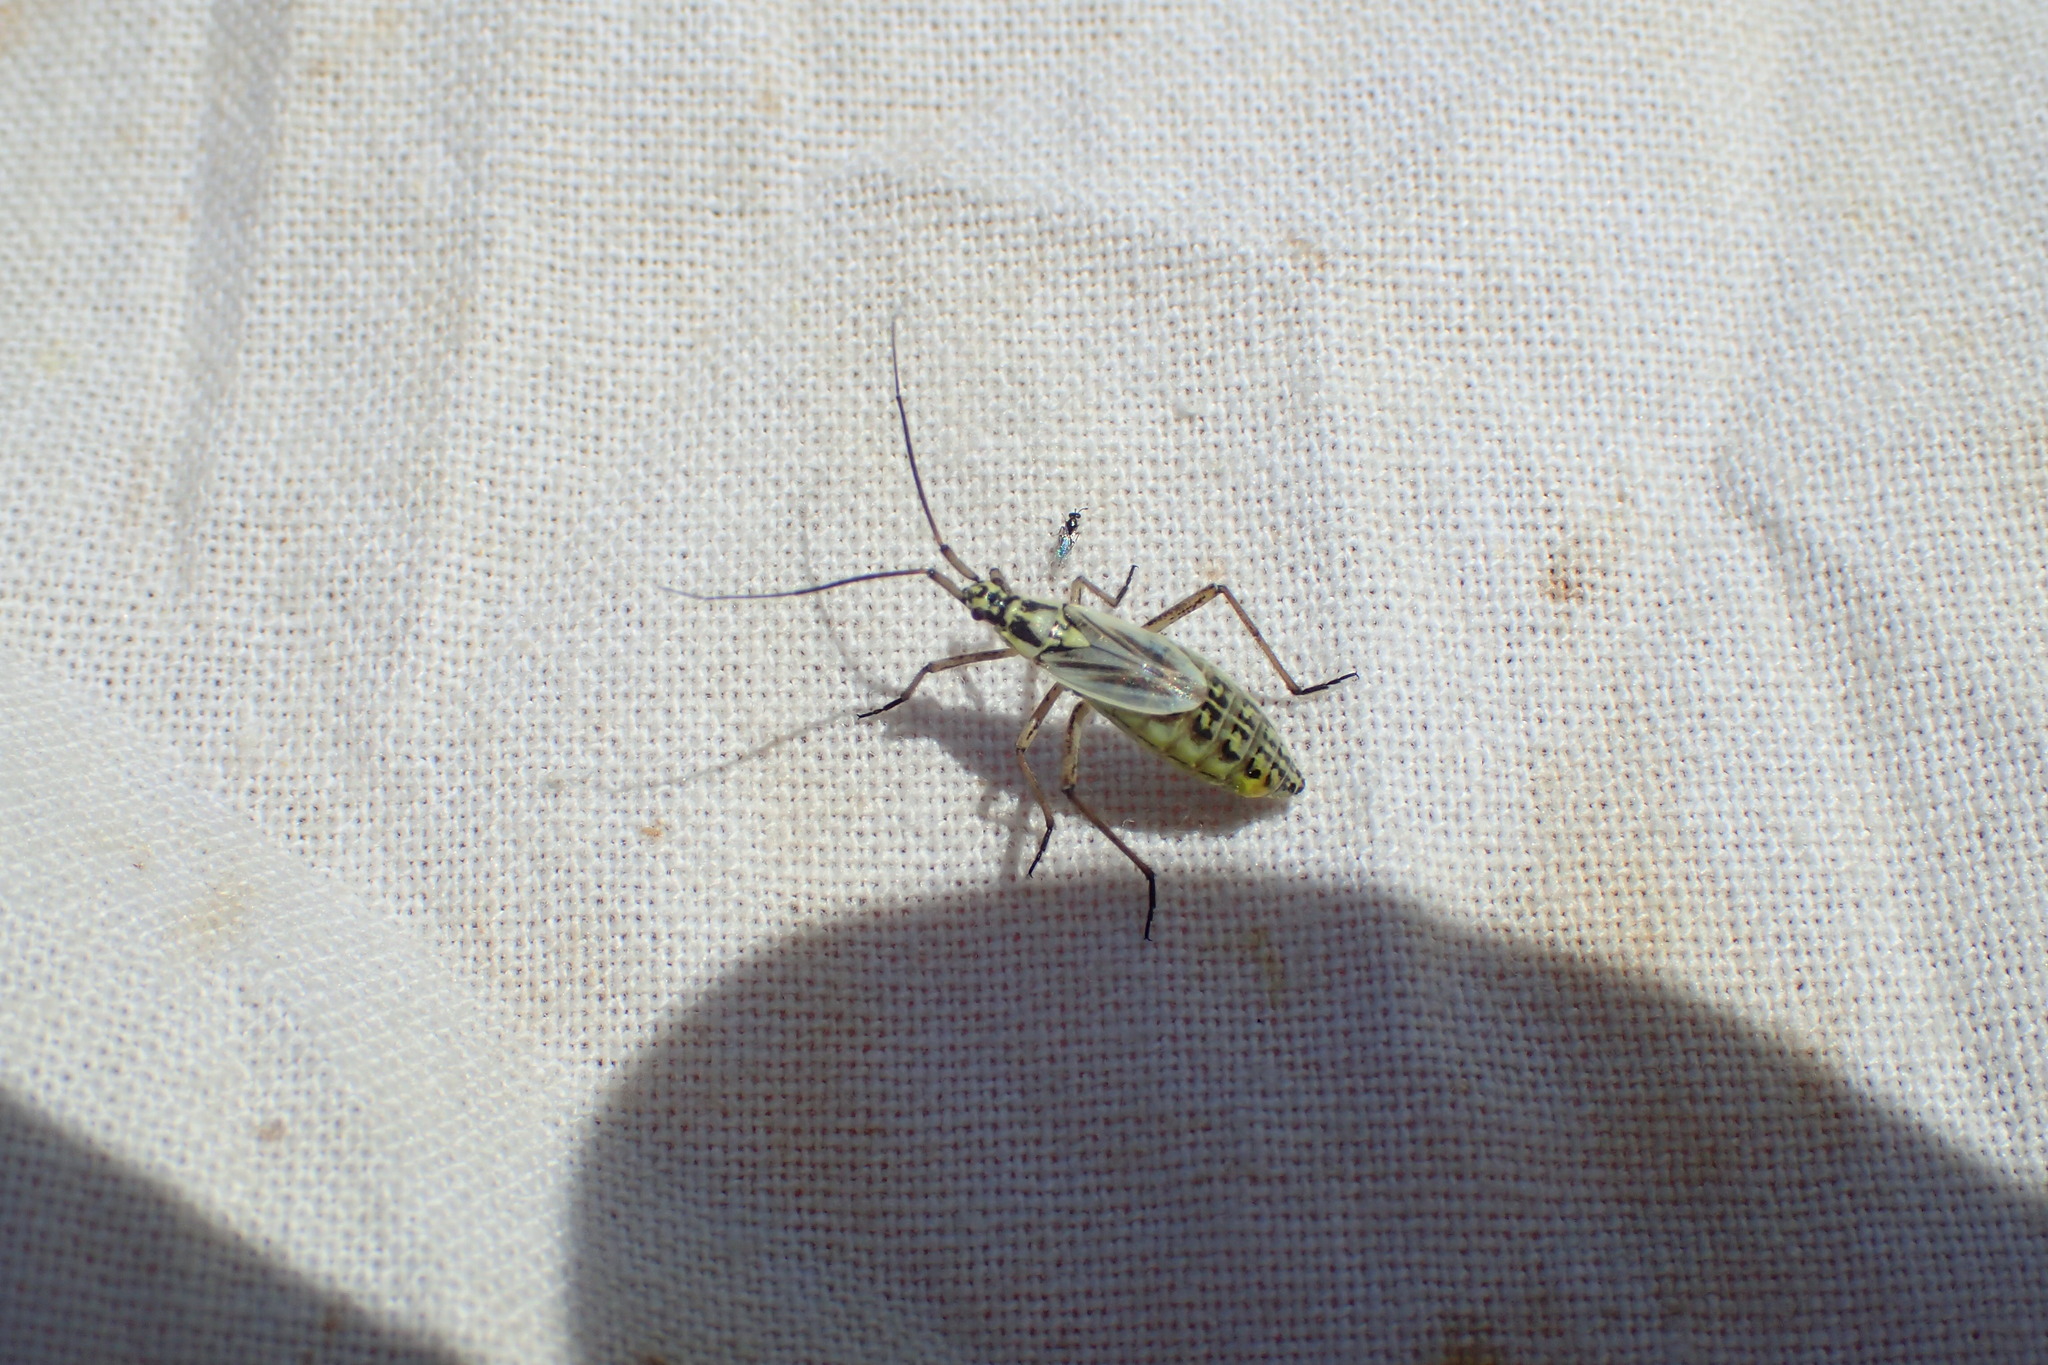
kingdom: Animalia
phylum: Arthropoda
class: Insecta
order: Hemiptera
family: Miridae
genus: Leptopterna
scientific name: Leptopterna dolabrata
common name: Meadow plant bug
